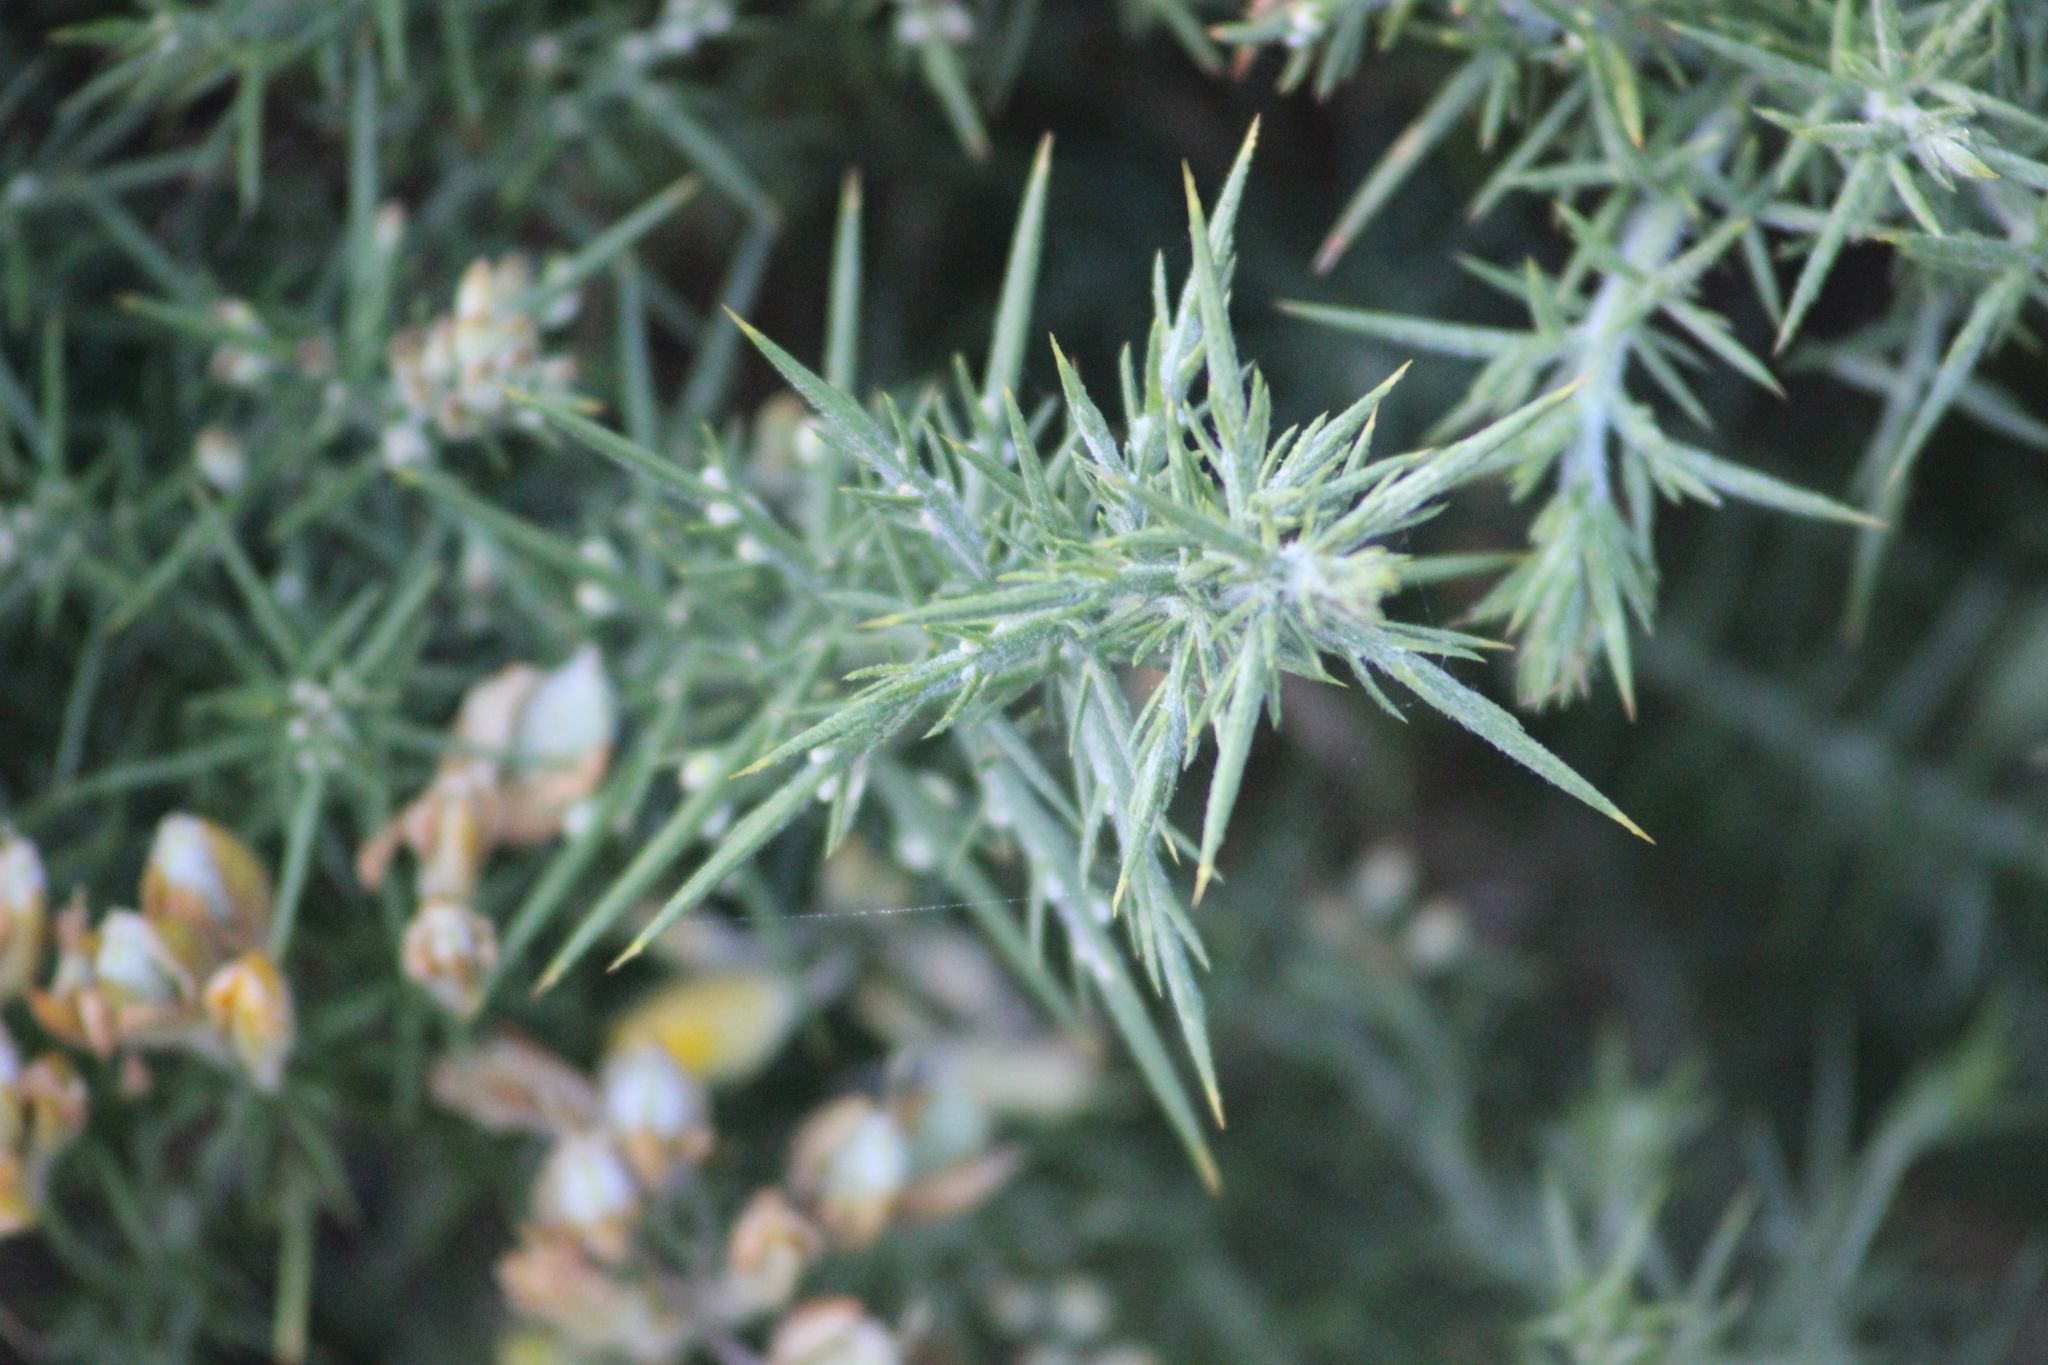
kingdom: Plantae
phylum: Tracheophyta
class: Magnoliopsida
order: Fabales
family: Fabaceae
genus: Ulex
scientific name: Ulex europaeus
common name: Common gorse
